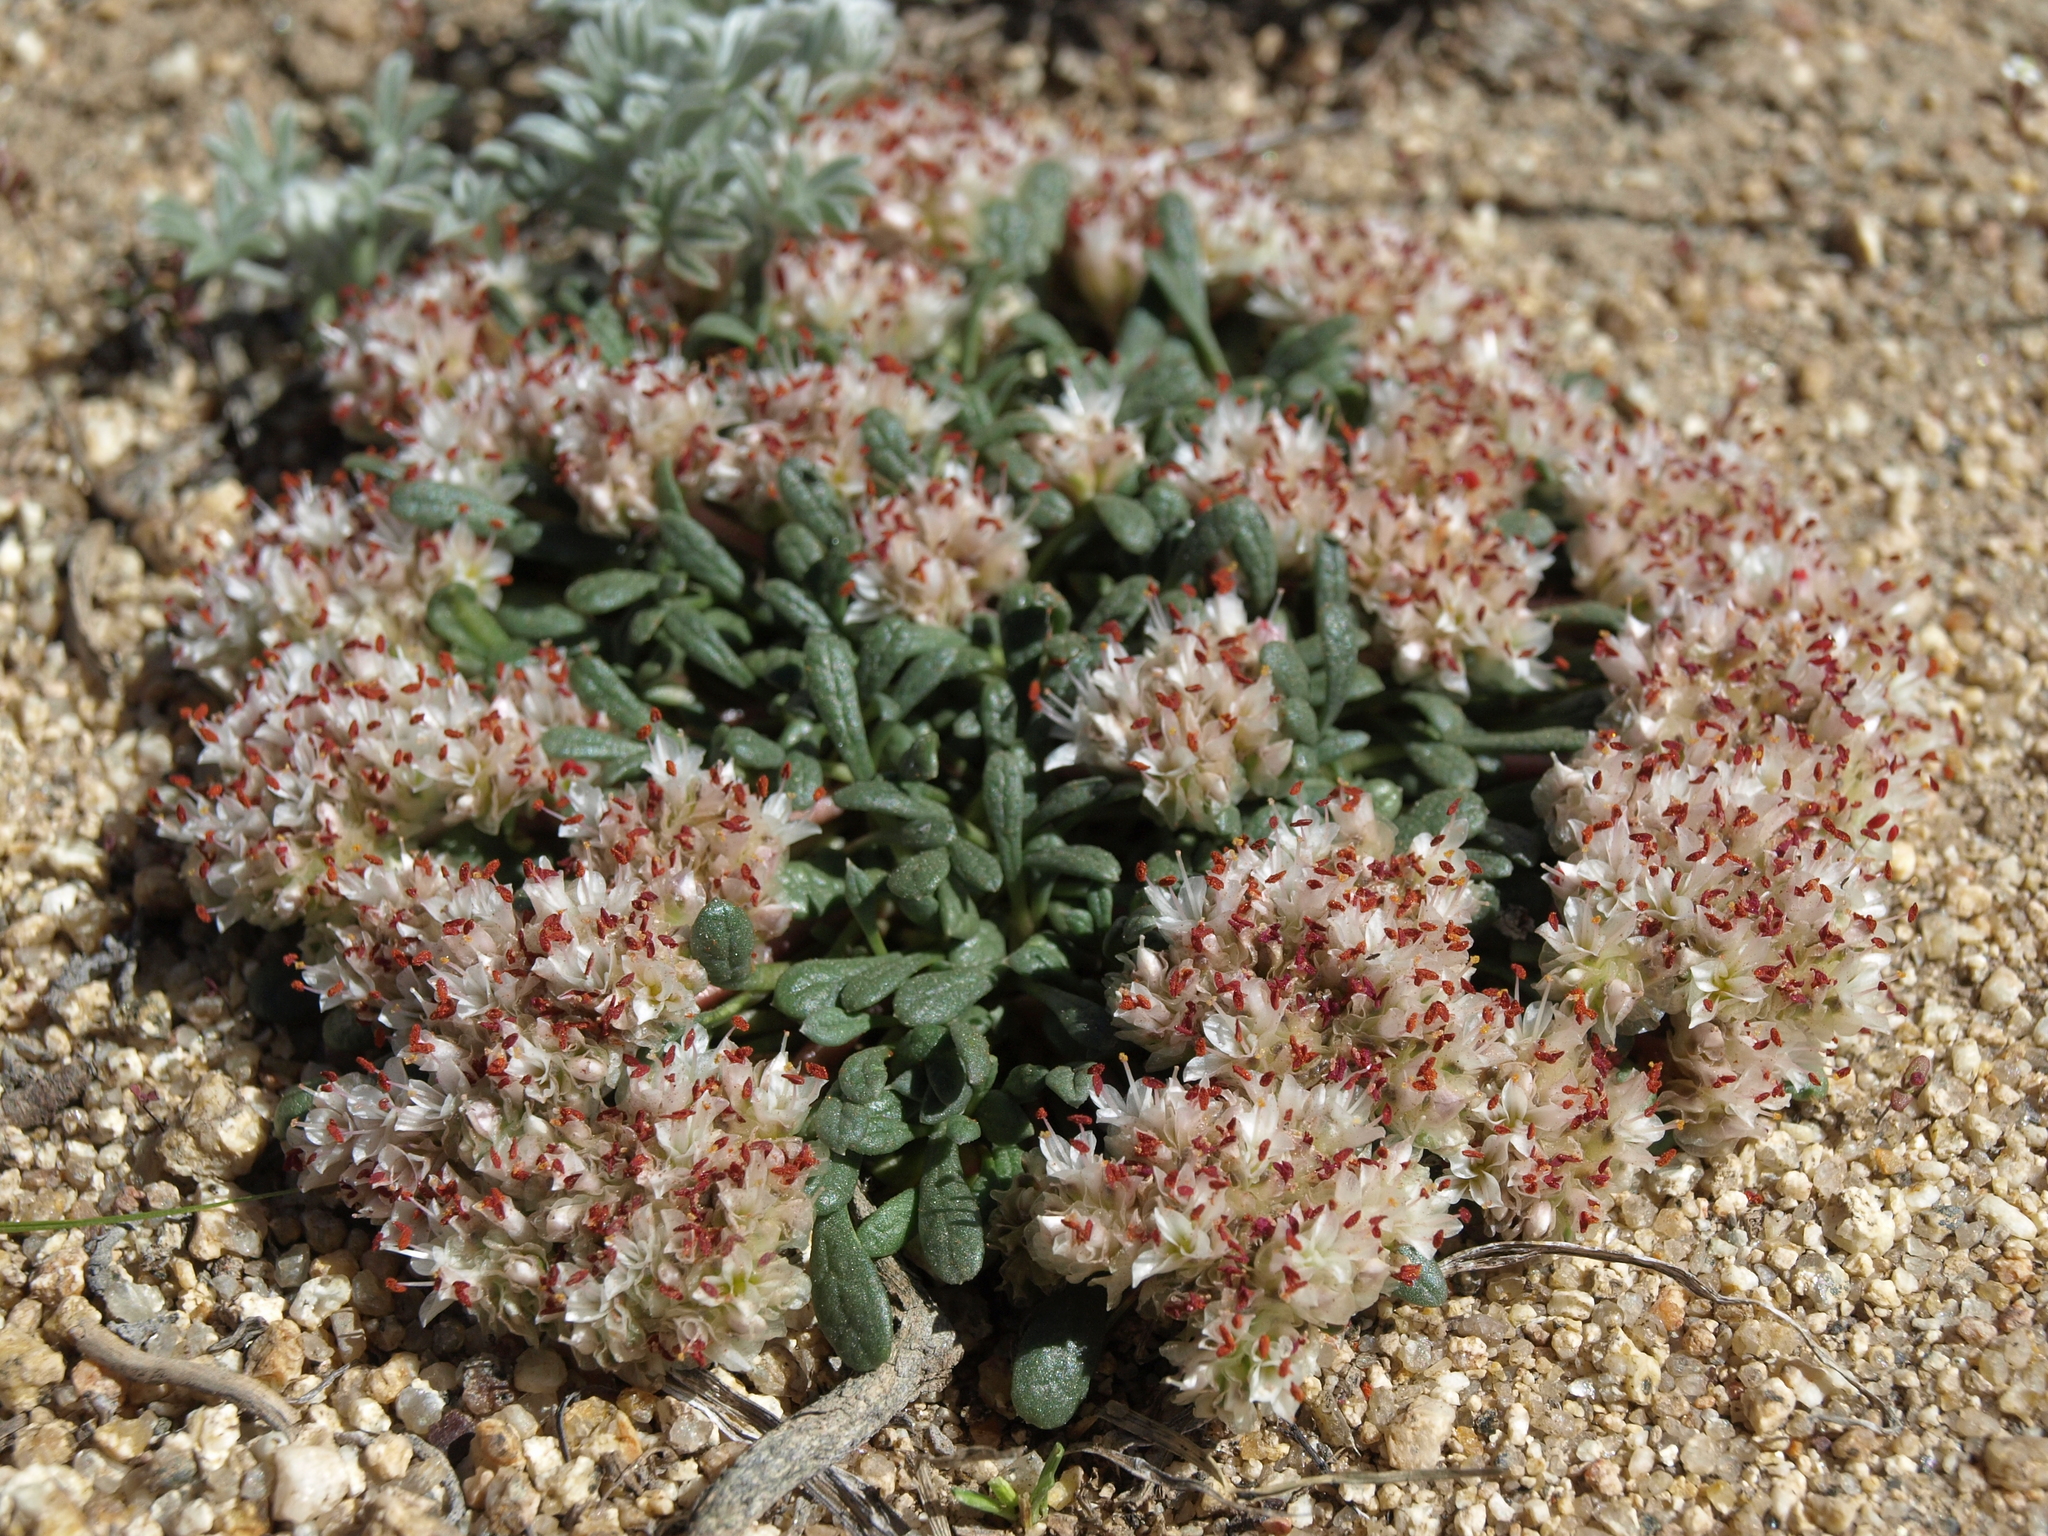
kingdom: Plantae
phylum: Tracheophyta
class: Magnoliopsida
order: Caryophyllales
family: Montiaceae
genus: Calyptridium
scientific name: Calyptridium umbellatum
